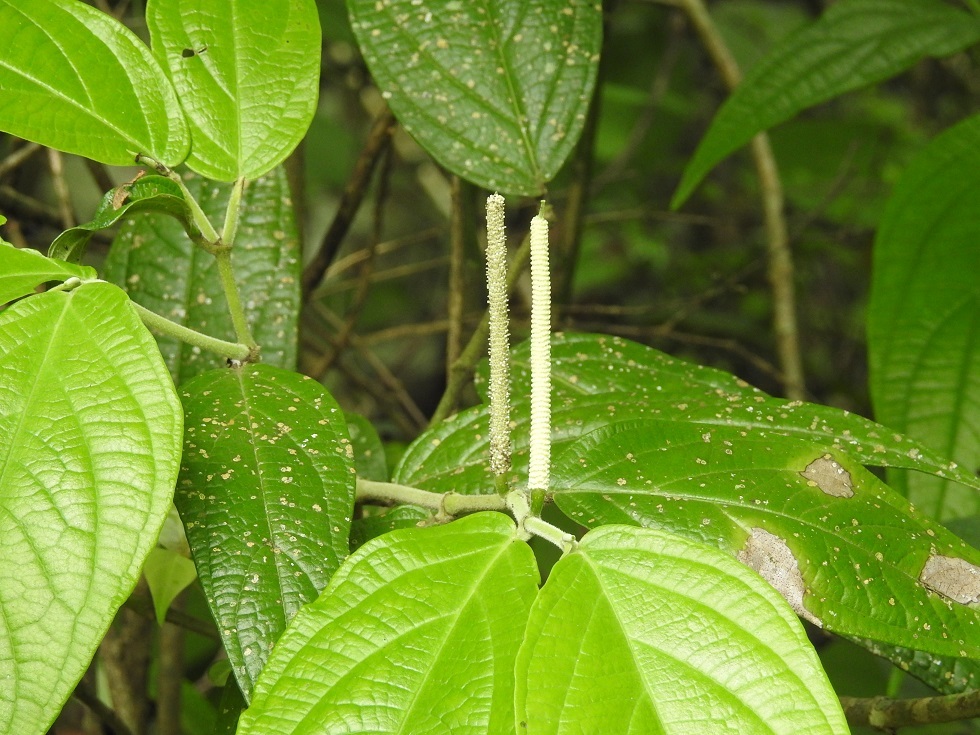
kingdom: Plantae
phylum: Tracheophyta
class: Magnoliopsida
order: Piperales
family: Piperaceae
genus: Piper
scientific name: Piper jacquemontianum
